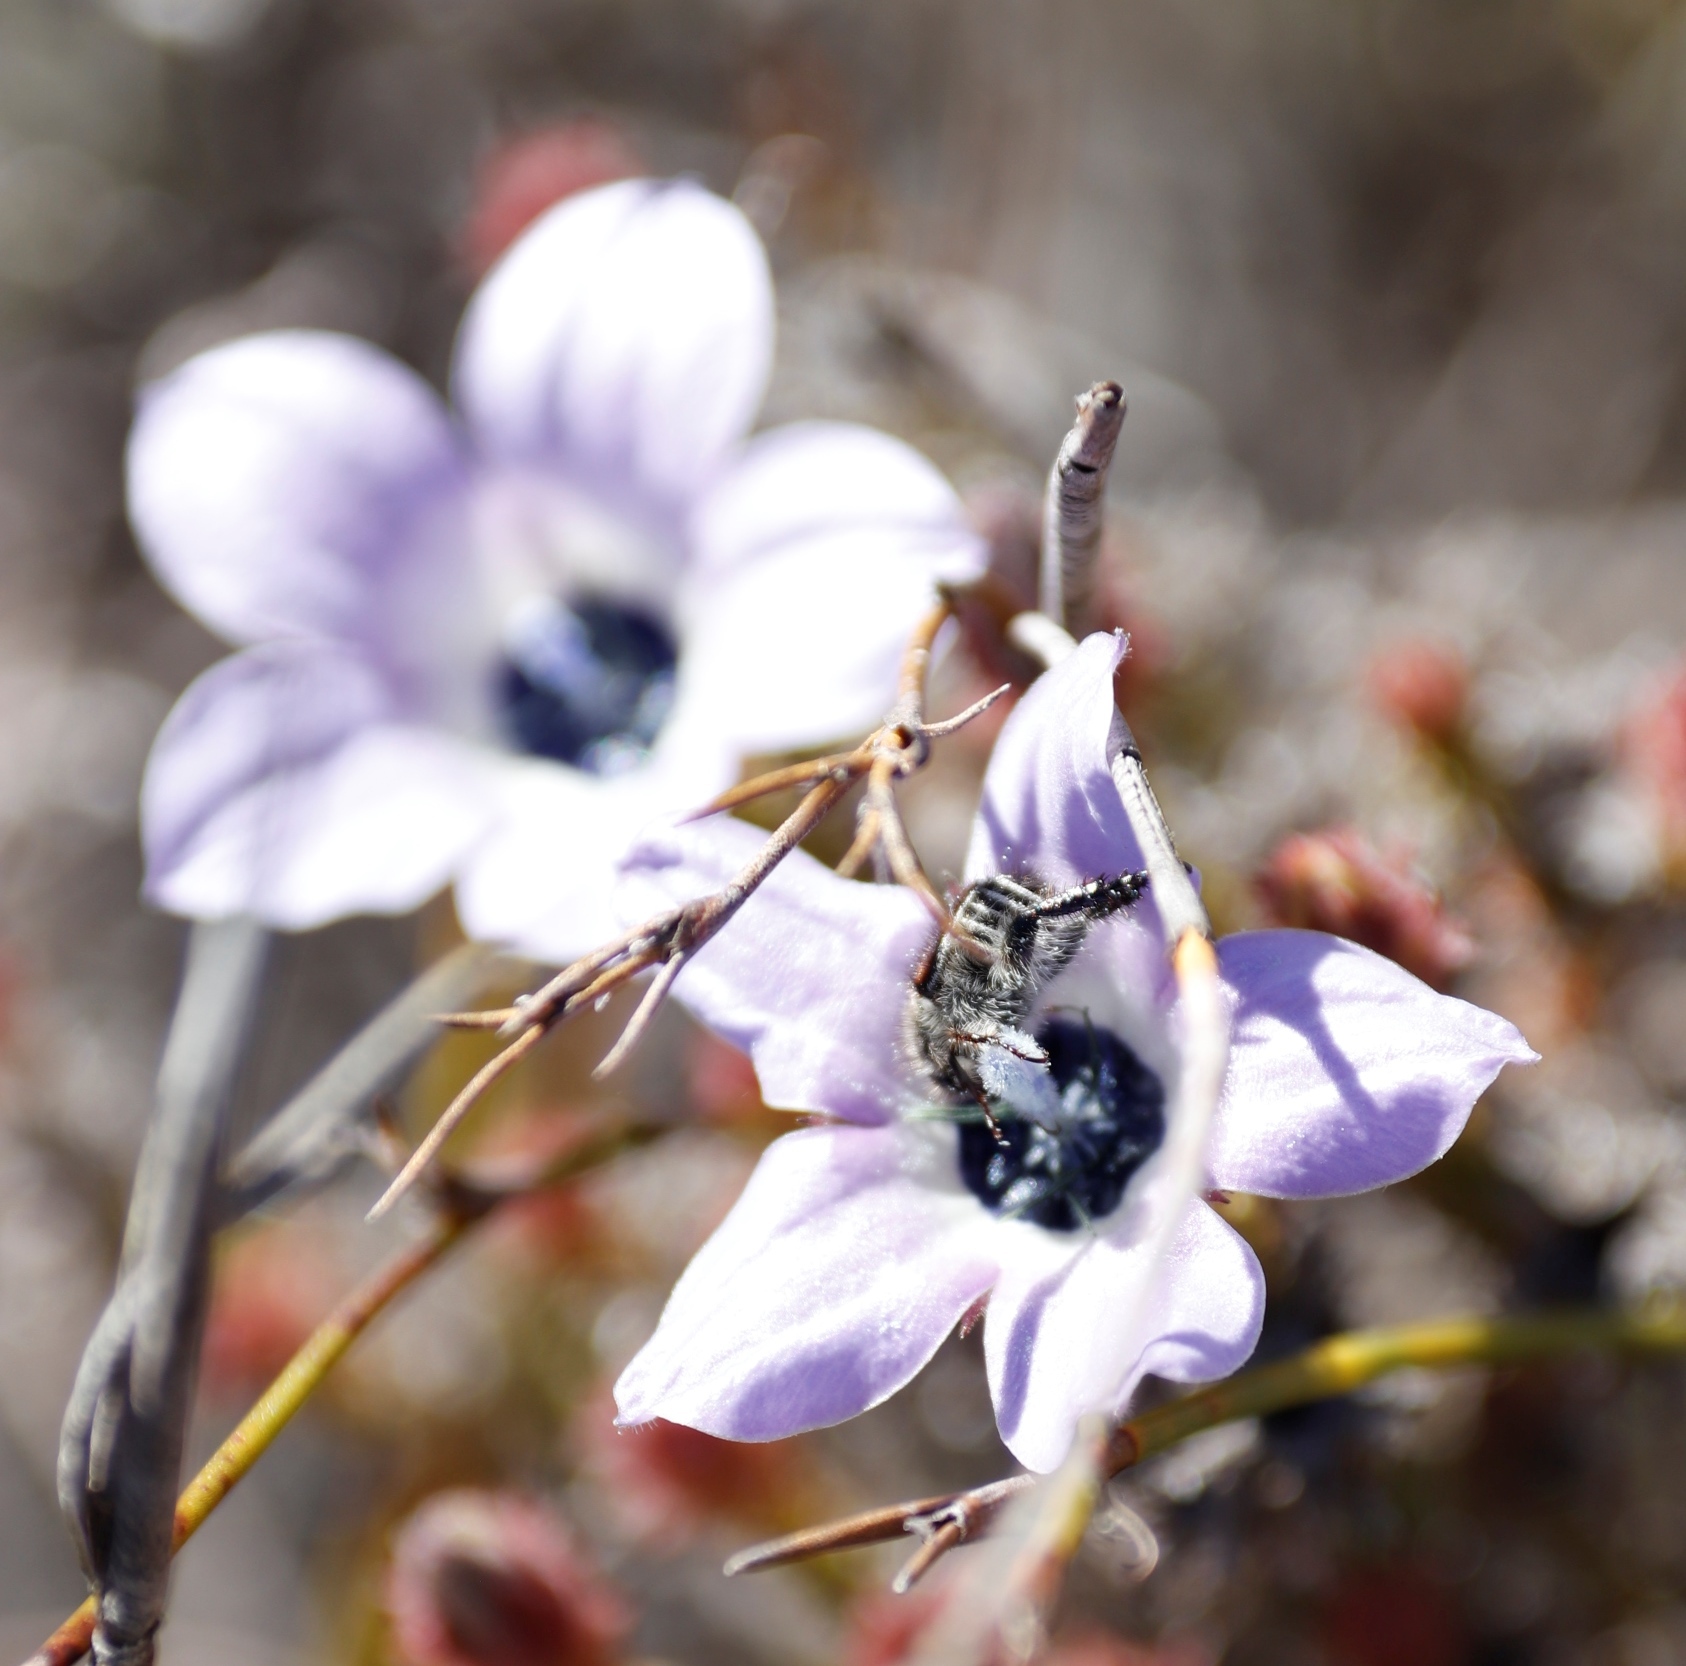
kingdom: Plantae
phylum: Tracheophyta
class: Magnoliopsida
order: Asterales
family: Campanulaceae
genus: Roella
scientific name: Roella triflora
